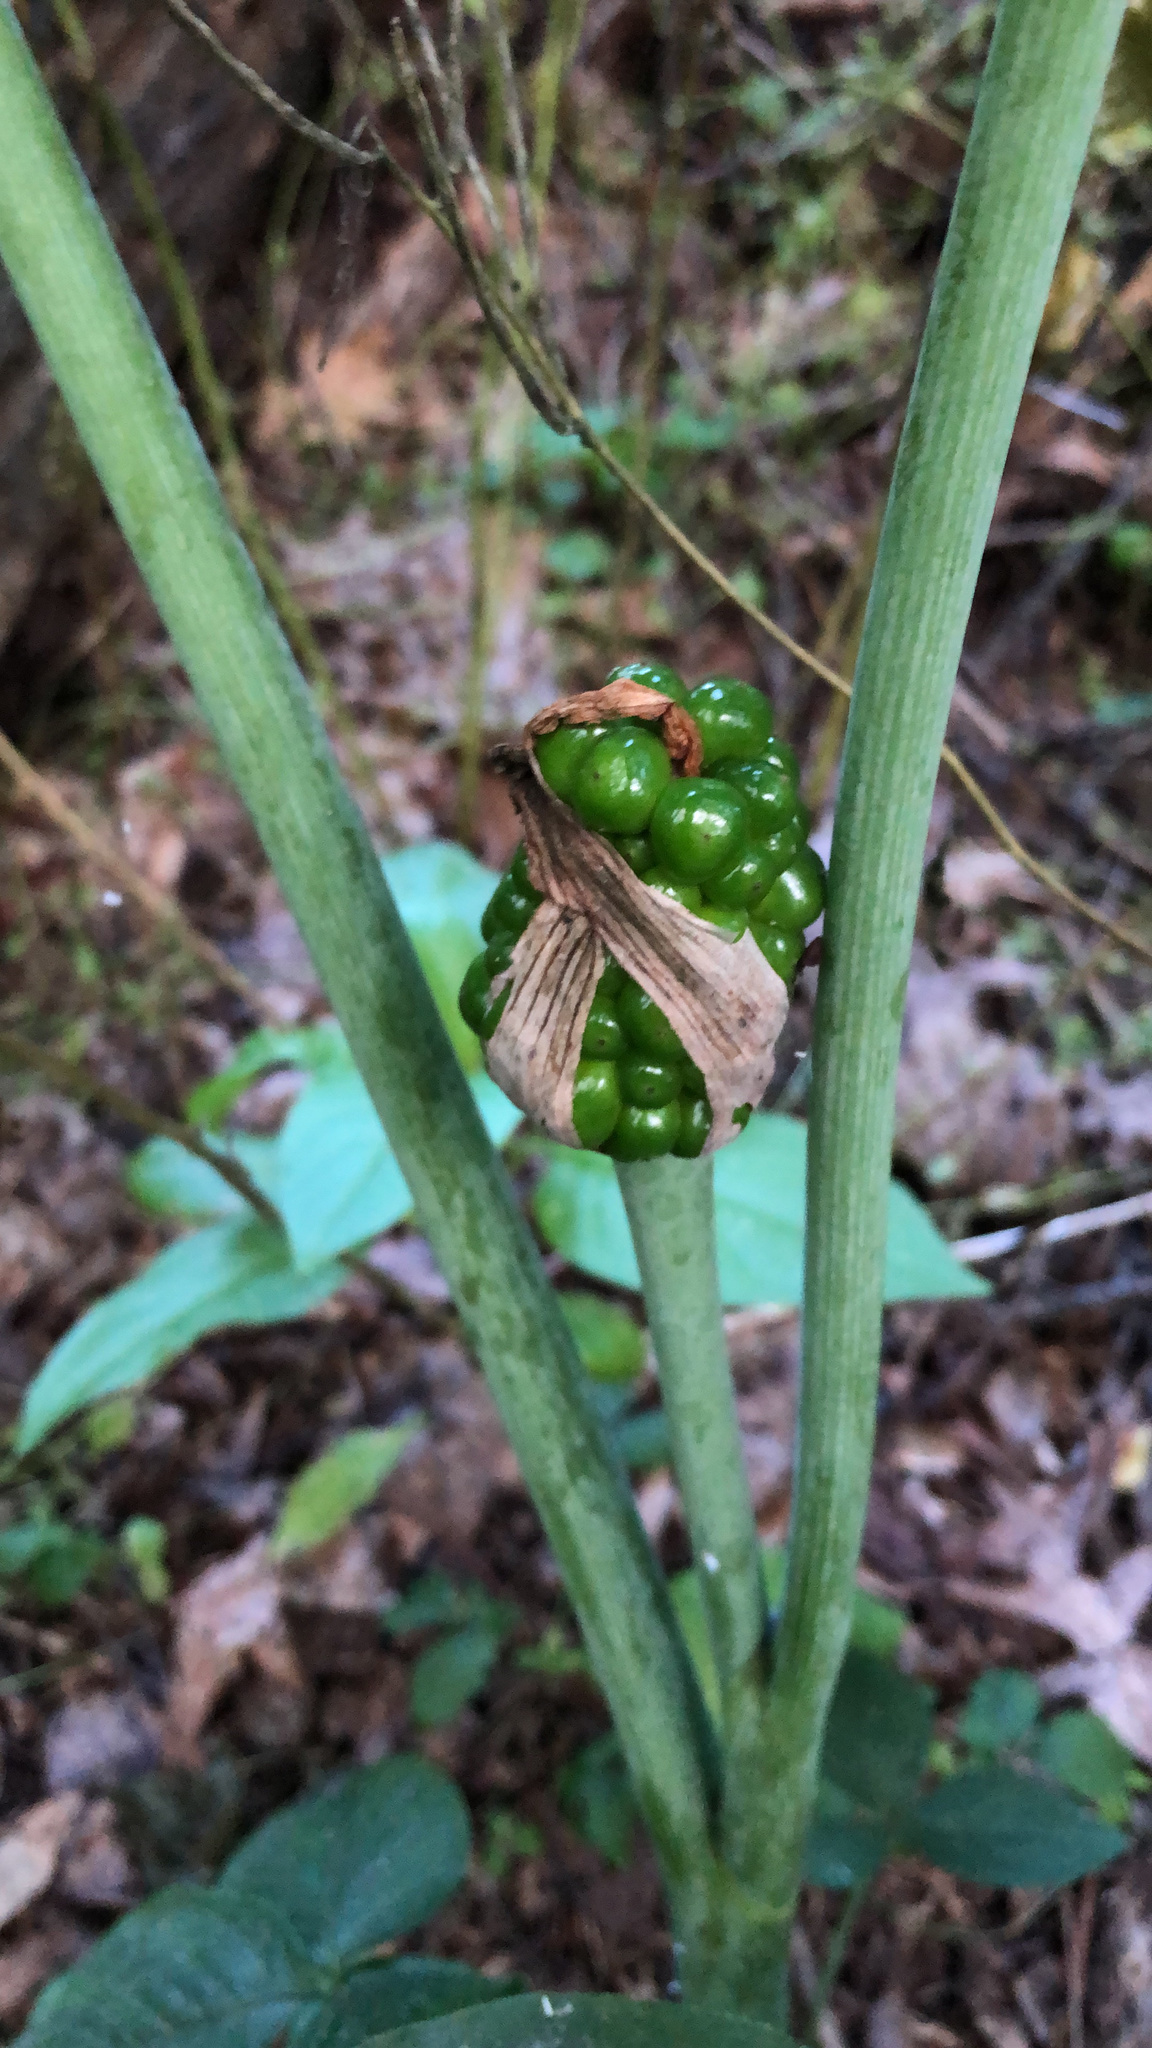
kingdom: Plantae
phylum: Tracheophyta
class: Liliopsida
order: Alismatales
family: Araceae
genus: Arisaema
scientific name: Arisaema triphyllum
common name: Jack-in-the-pulpit
